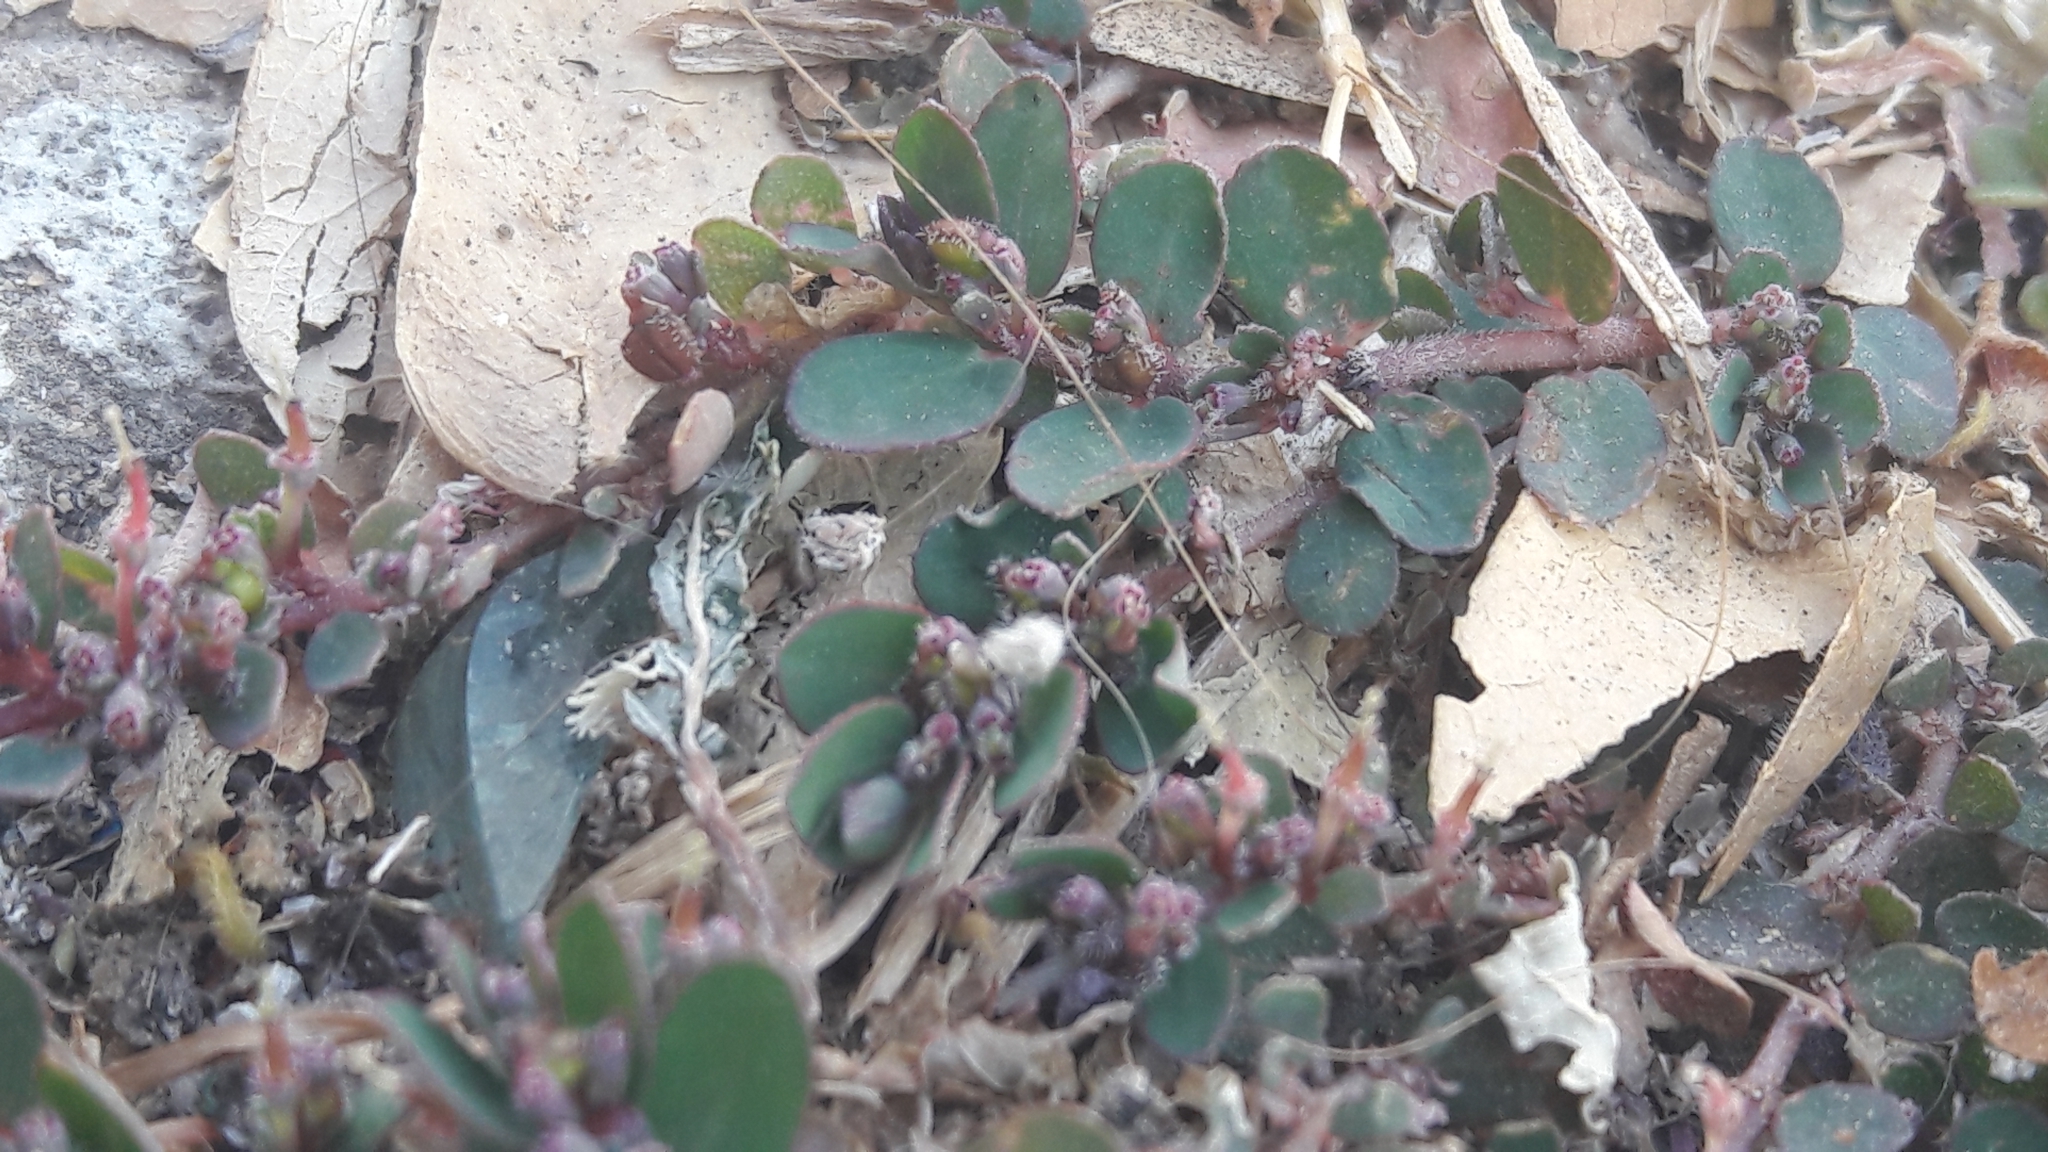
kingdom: Plantae
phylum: Tracheophyta
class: Magnoliopsida
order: Malpighiales
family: Euphorbiaceae
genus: Euphorbia
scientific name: Euphorbia prostrata
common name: Prostrate sandmat
